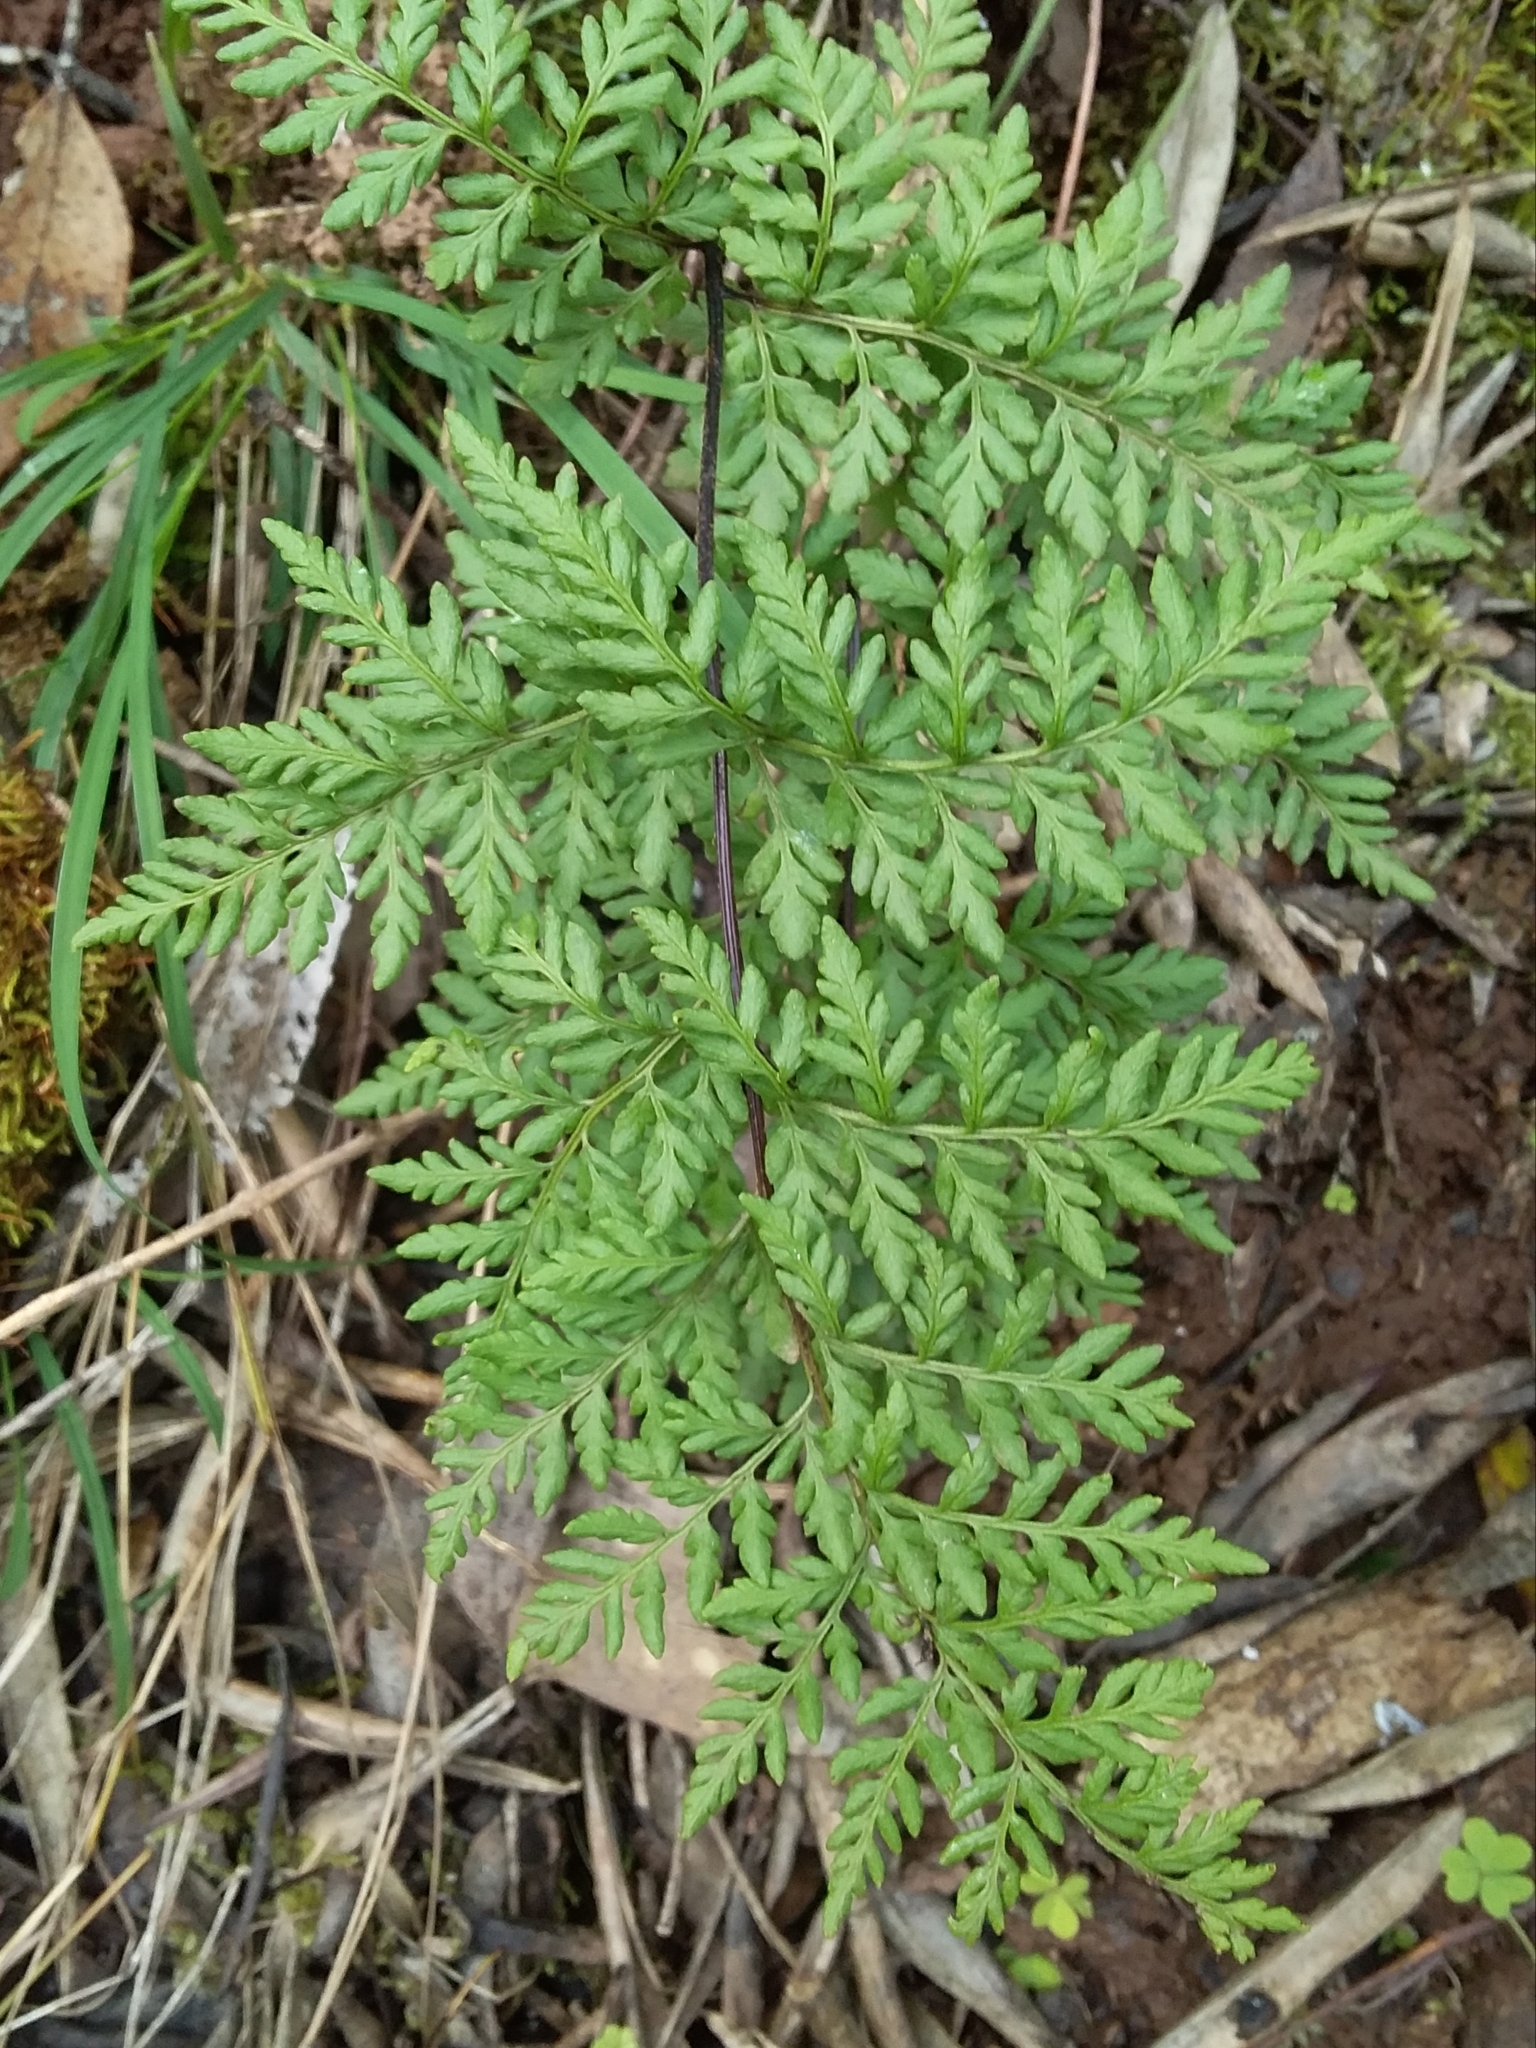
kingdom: Plantae
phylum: Tracheophyta
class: Polypodiopsida
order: Polypodiales
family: Pteridaceae
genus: Cheilanthes
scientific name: Cheilanthes austrotenuifolia
